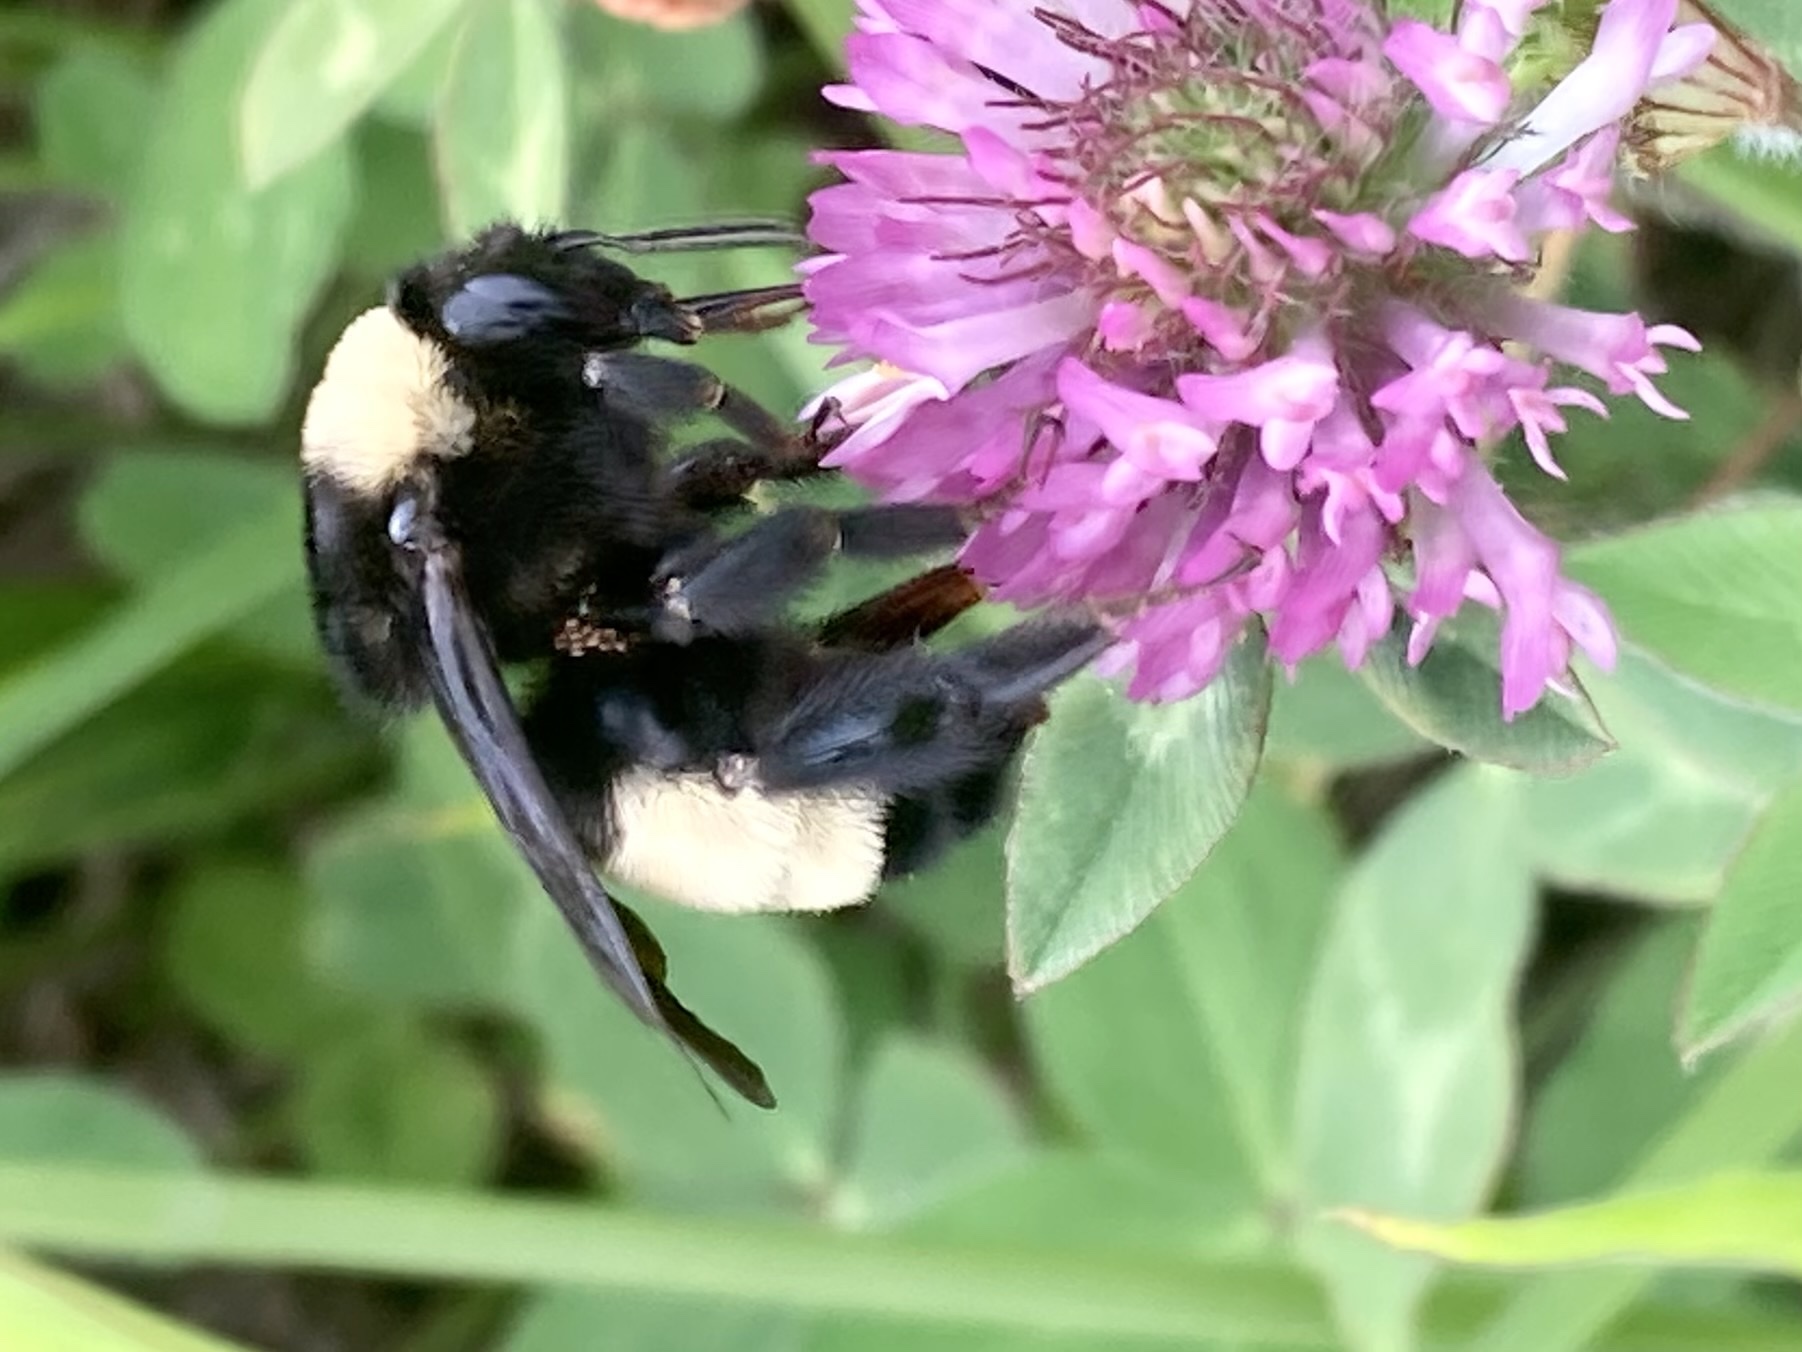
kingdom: Animalia
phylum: Arthropoda
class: Insecta
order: Hymenoptera
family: Apidae
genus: Bombus
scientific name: Bombus pensylvanicus
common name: Bumble bee
